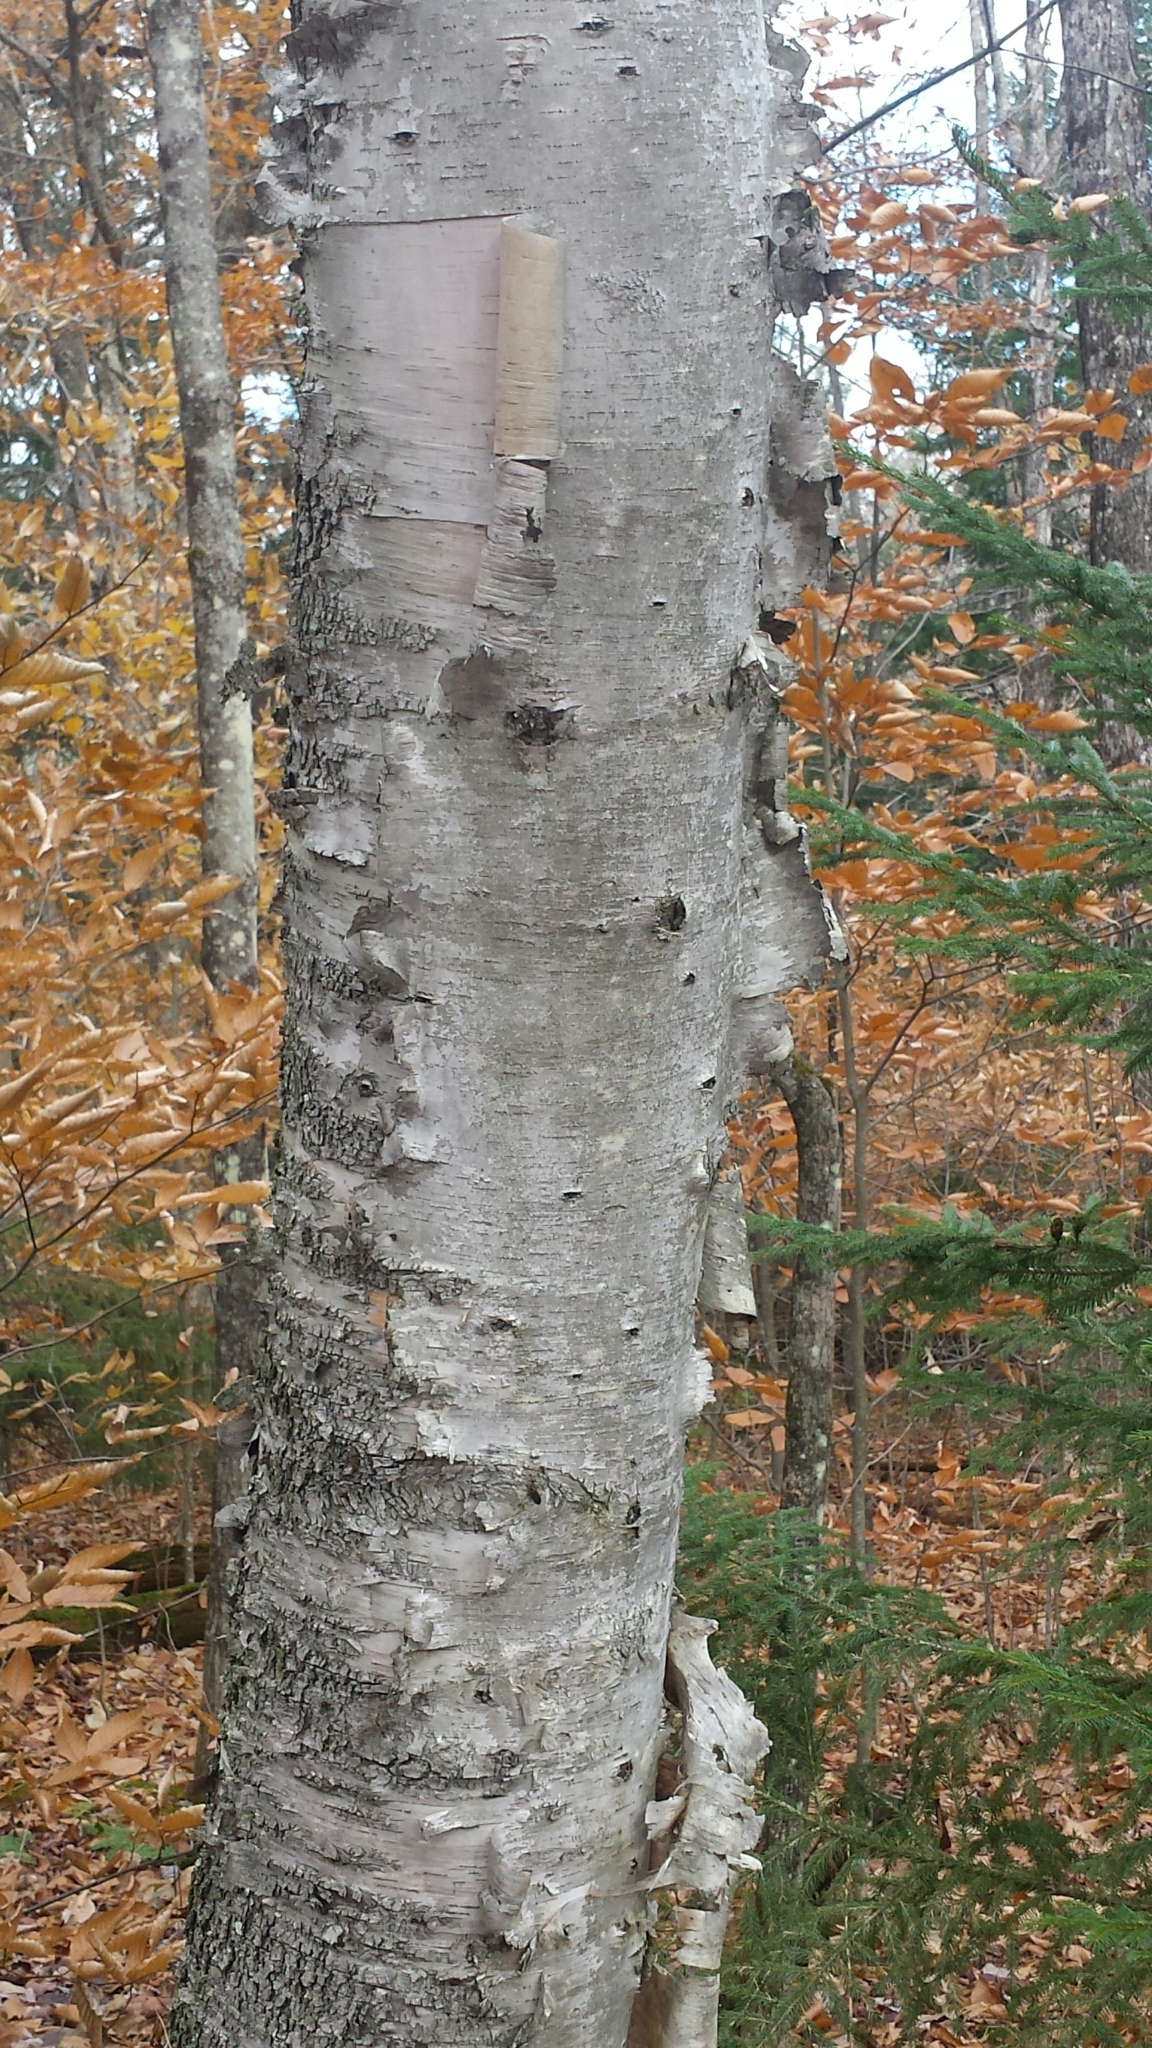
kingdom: Plantae
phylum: Tracheophyta
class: Magnoliopsida
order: Fagales
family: Betulaceae
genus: Betula
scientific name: Betula papyrifera
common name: Paper birch
